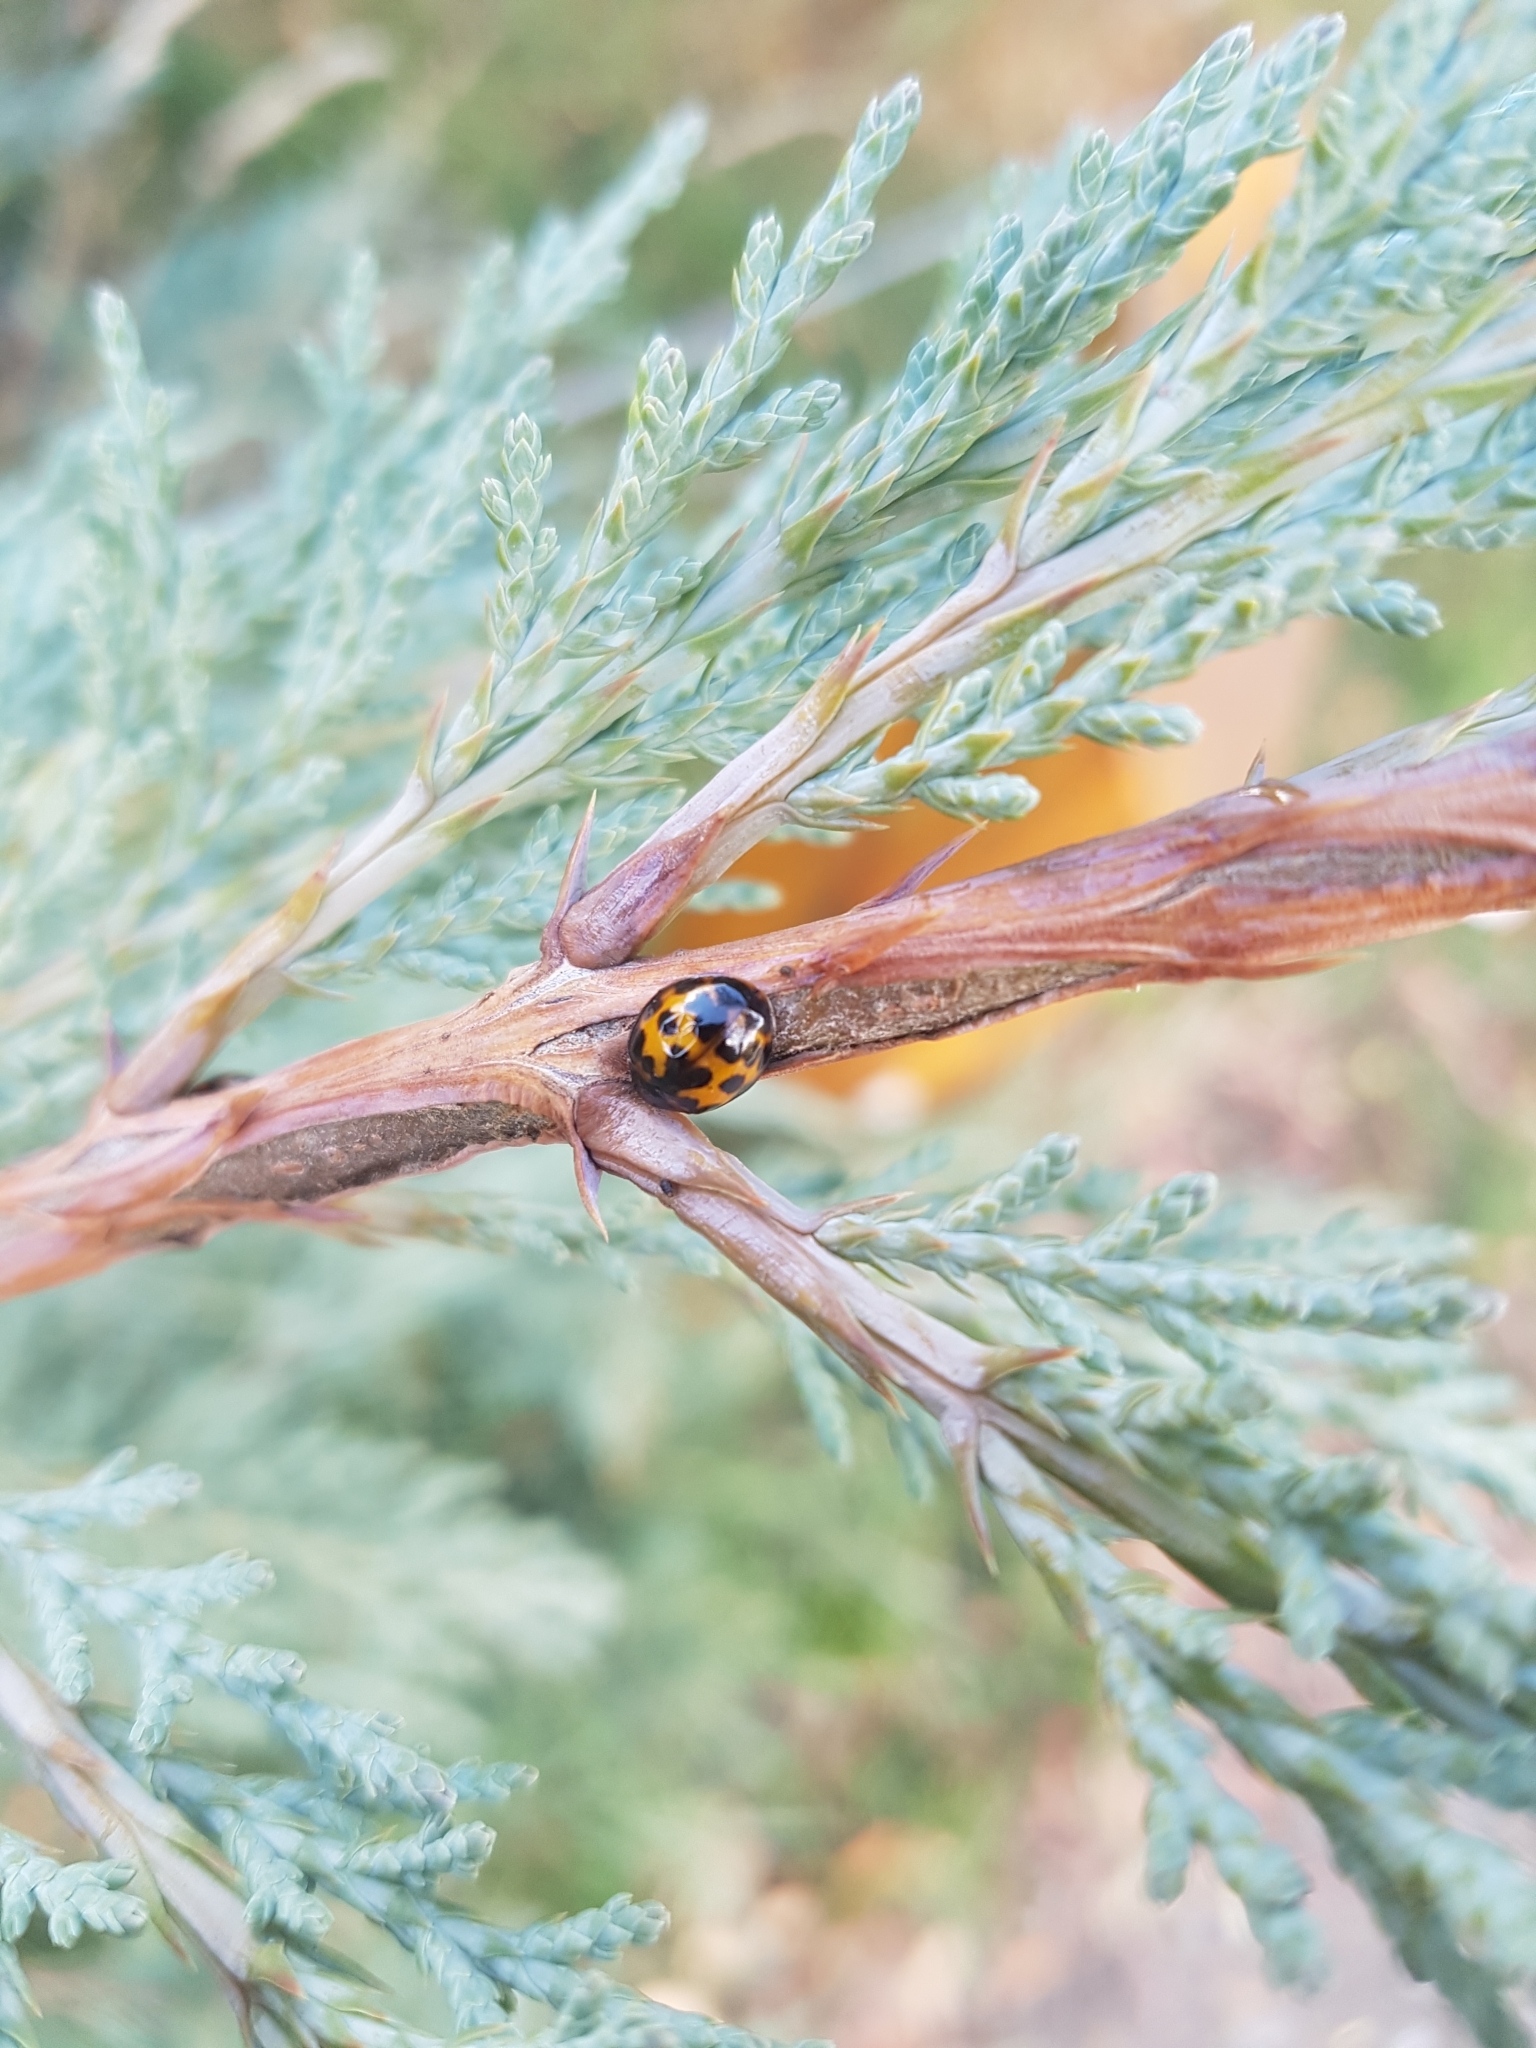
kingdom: Animalia
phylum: Arthropoda
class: Insecta
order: Coleoptera
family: Coccinellidae
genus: Harmonia
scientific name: Harmonia axyridis
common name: Harlequin ladybird
